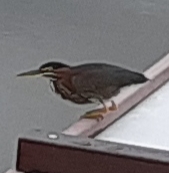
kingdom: Animalia
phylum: Chordata
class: Aves
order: Pelecaniformes
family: Ardeidae
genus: Butorides
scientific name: Butorides virescens
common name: Green heron
